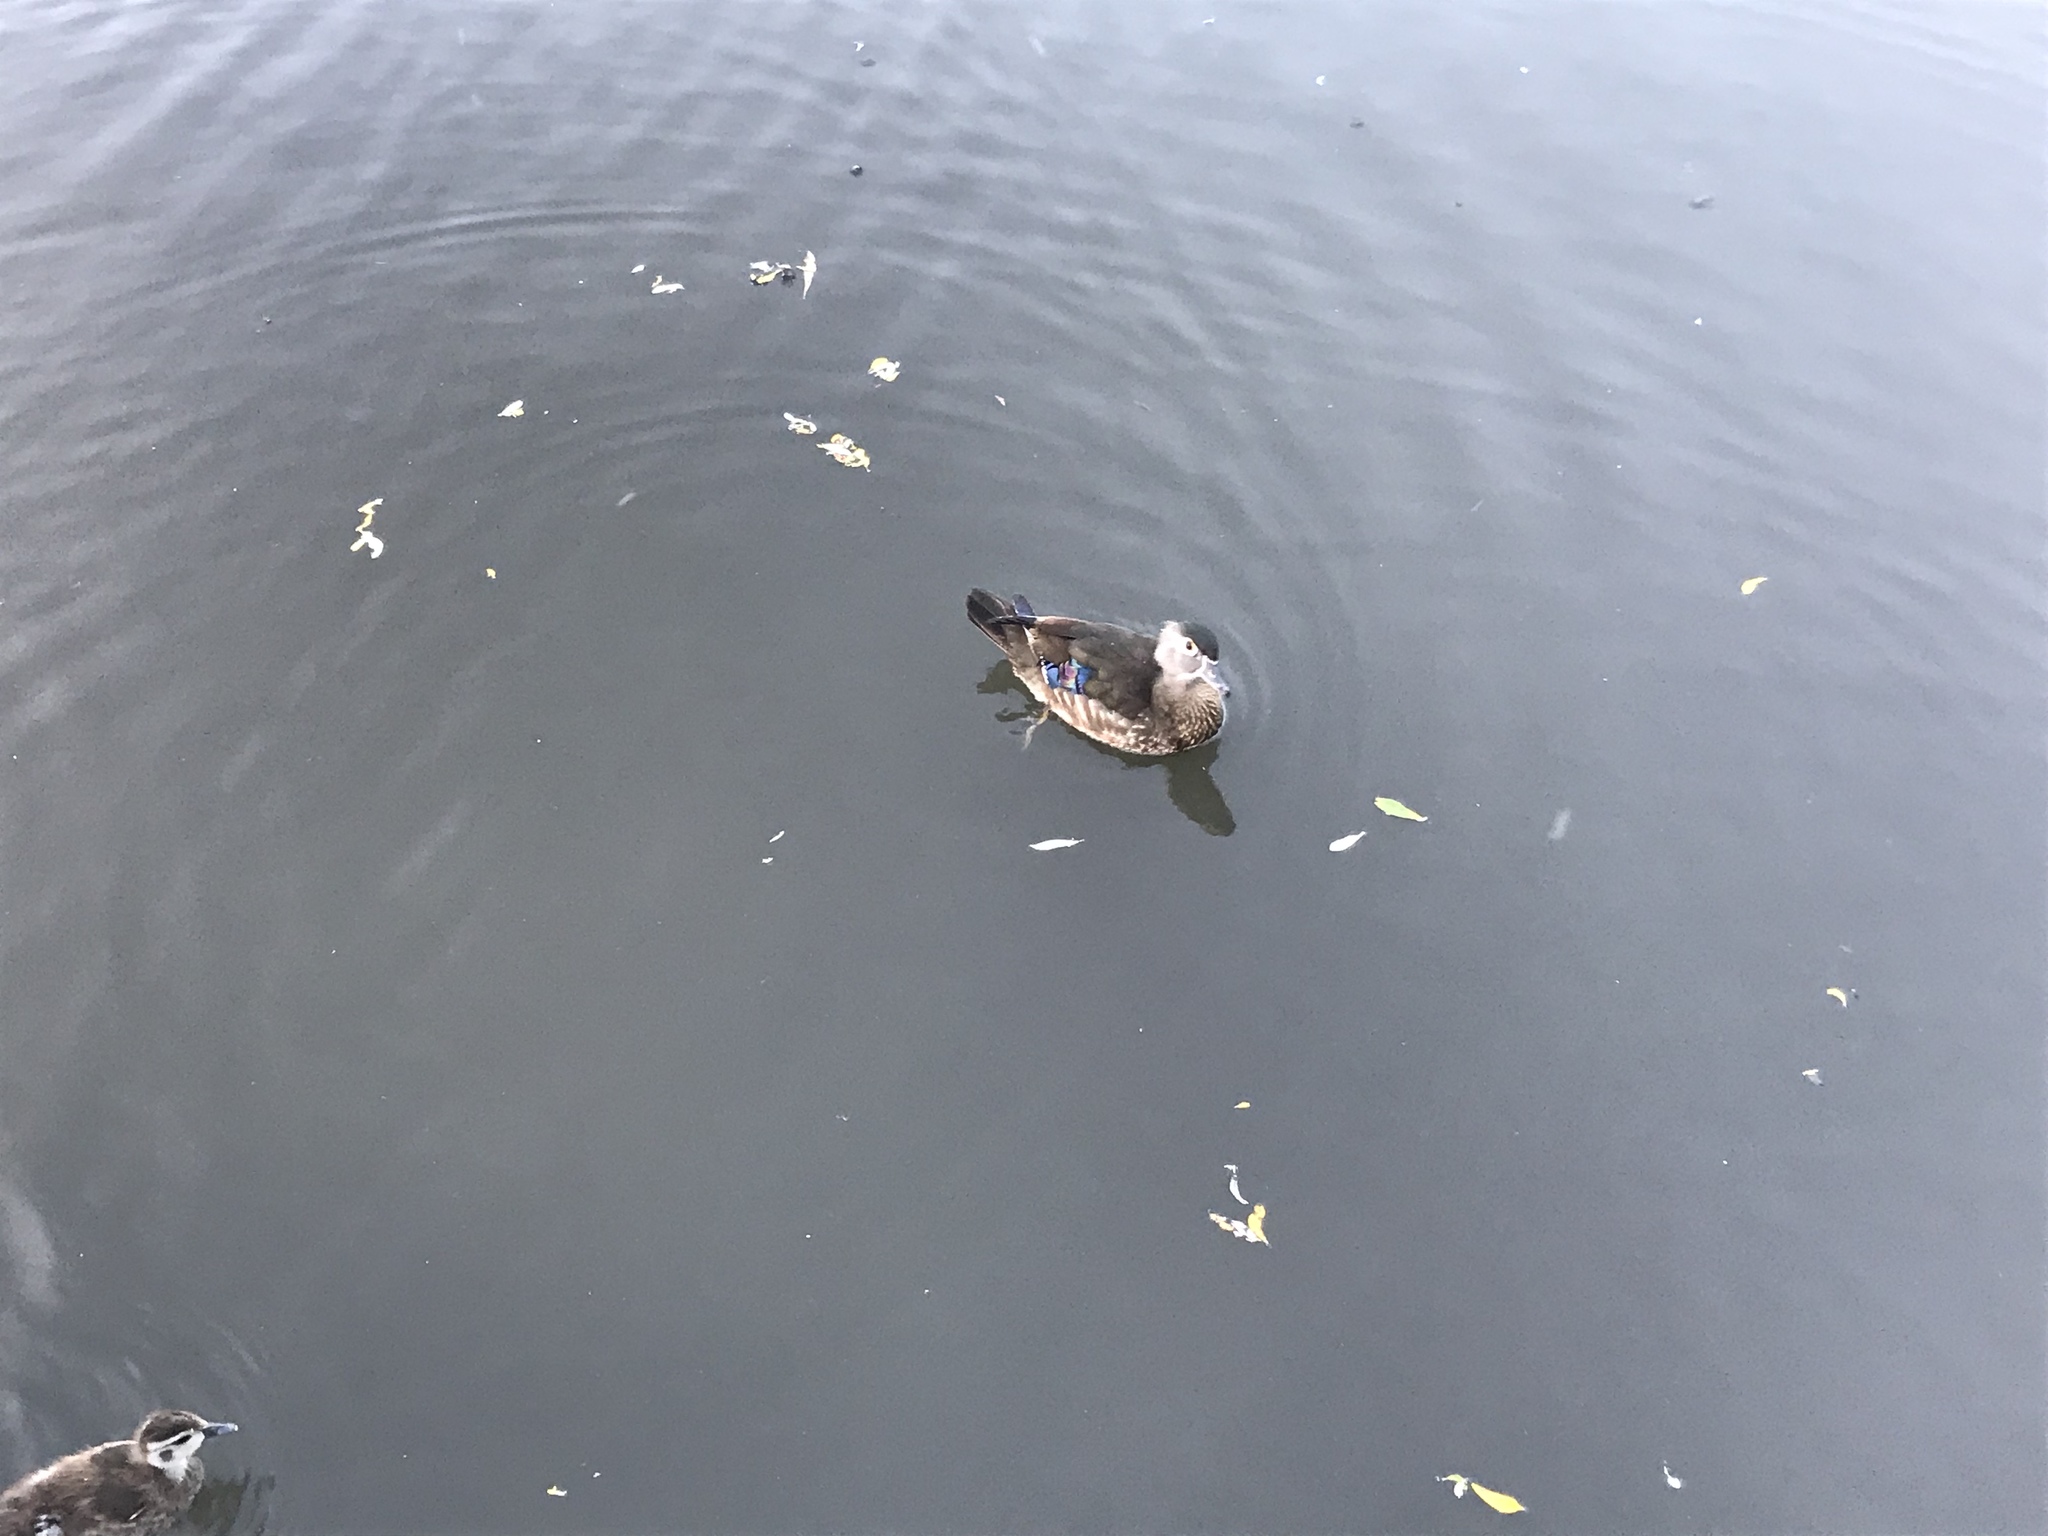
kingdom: Animalia
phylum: Chordata
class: Aves
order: Anseriformes
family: Anatidae
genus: Aix
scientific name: Aix sponsa
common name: Wood duck
